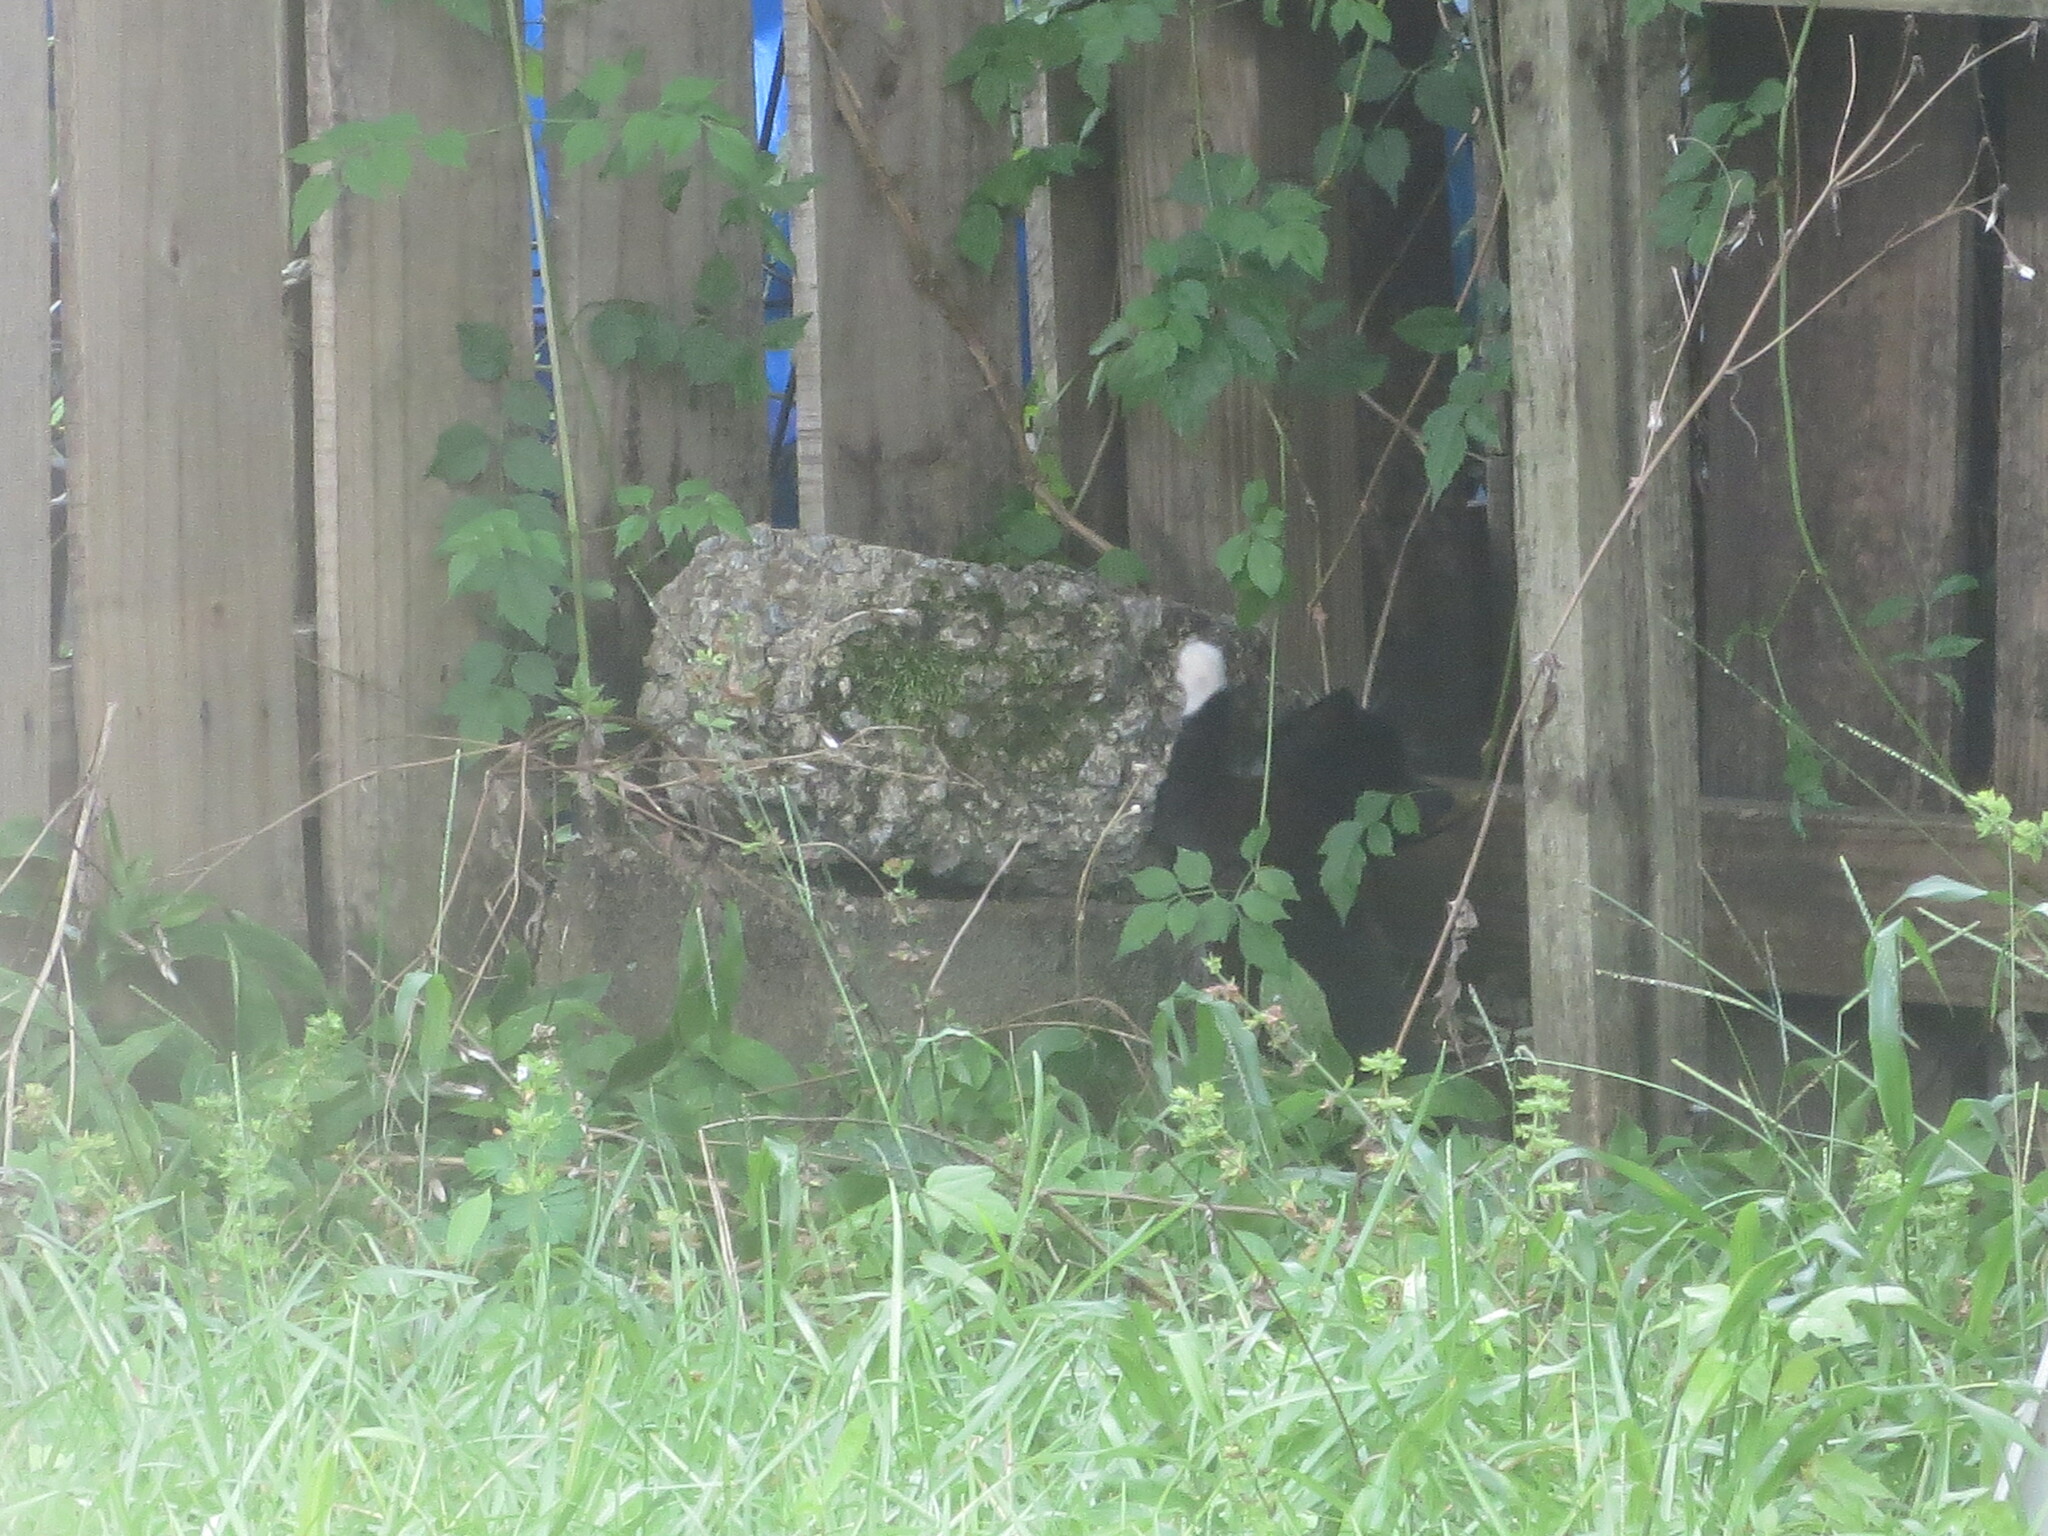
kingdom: Animalia
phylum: Chordata
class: Mammalia
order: Carnivora
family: Felidae
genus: Felis
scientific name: Felis catus
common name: Domestic cat
